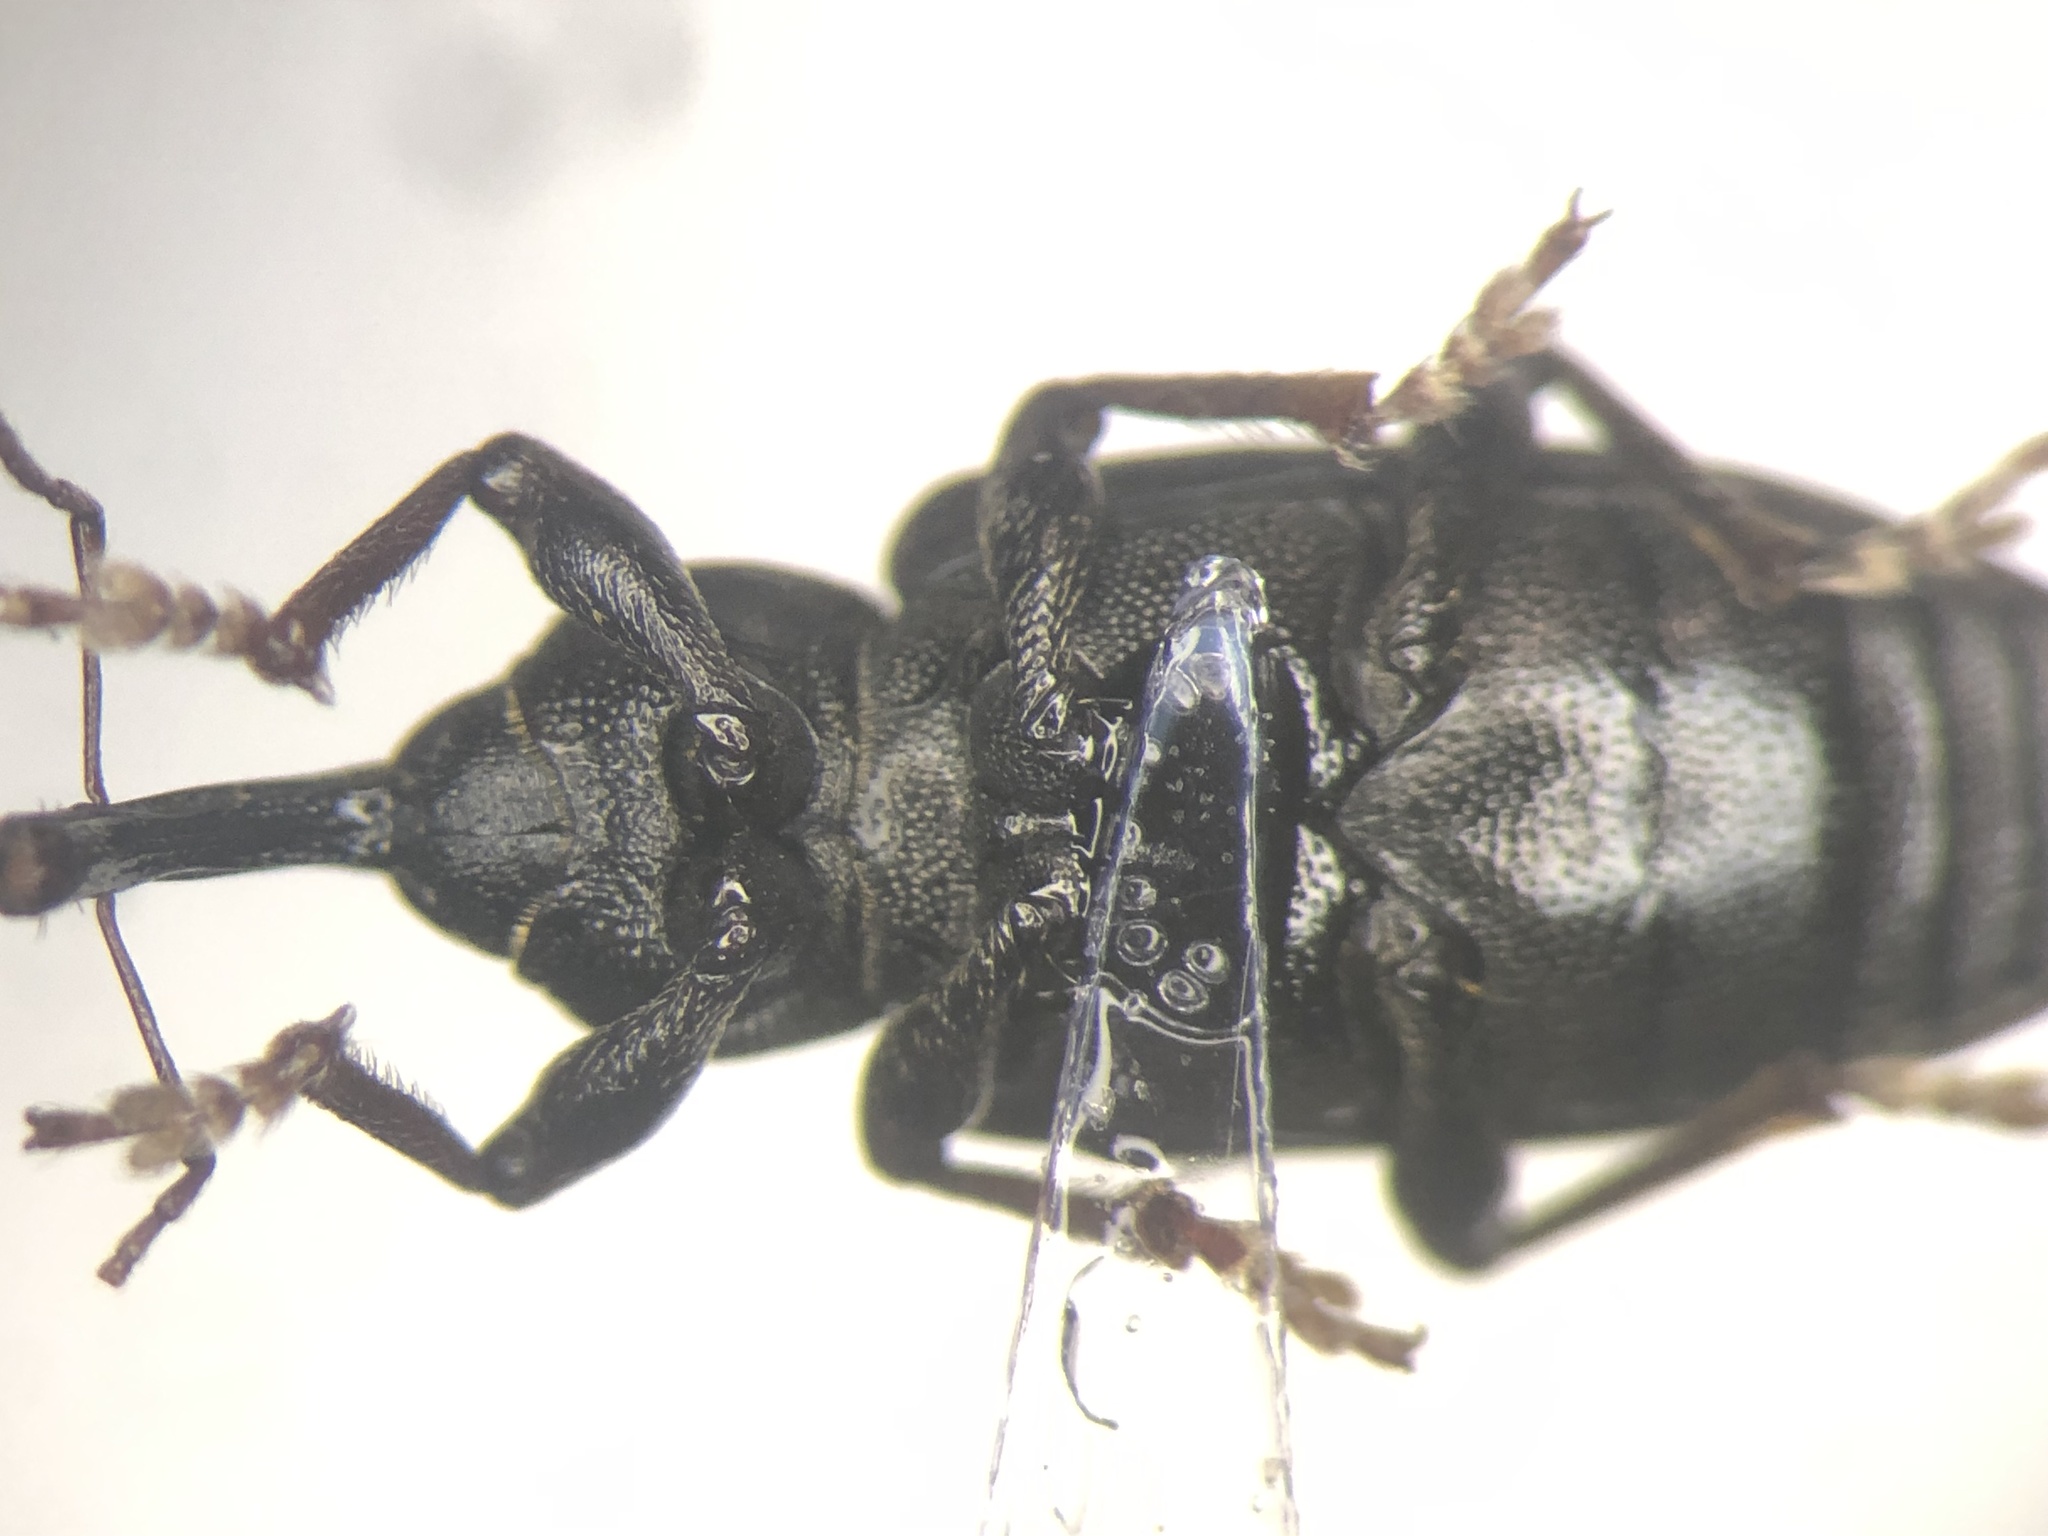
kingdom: Animalia
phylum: Arthropoda
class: Insecta
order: Coleoptera
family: Brachyceridae
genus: Notaris
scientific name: Notaris aethiops
